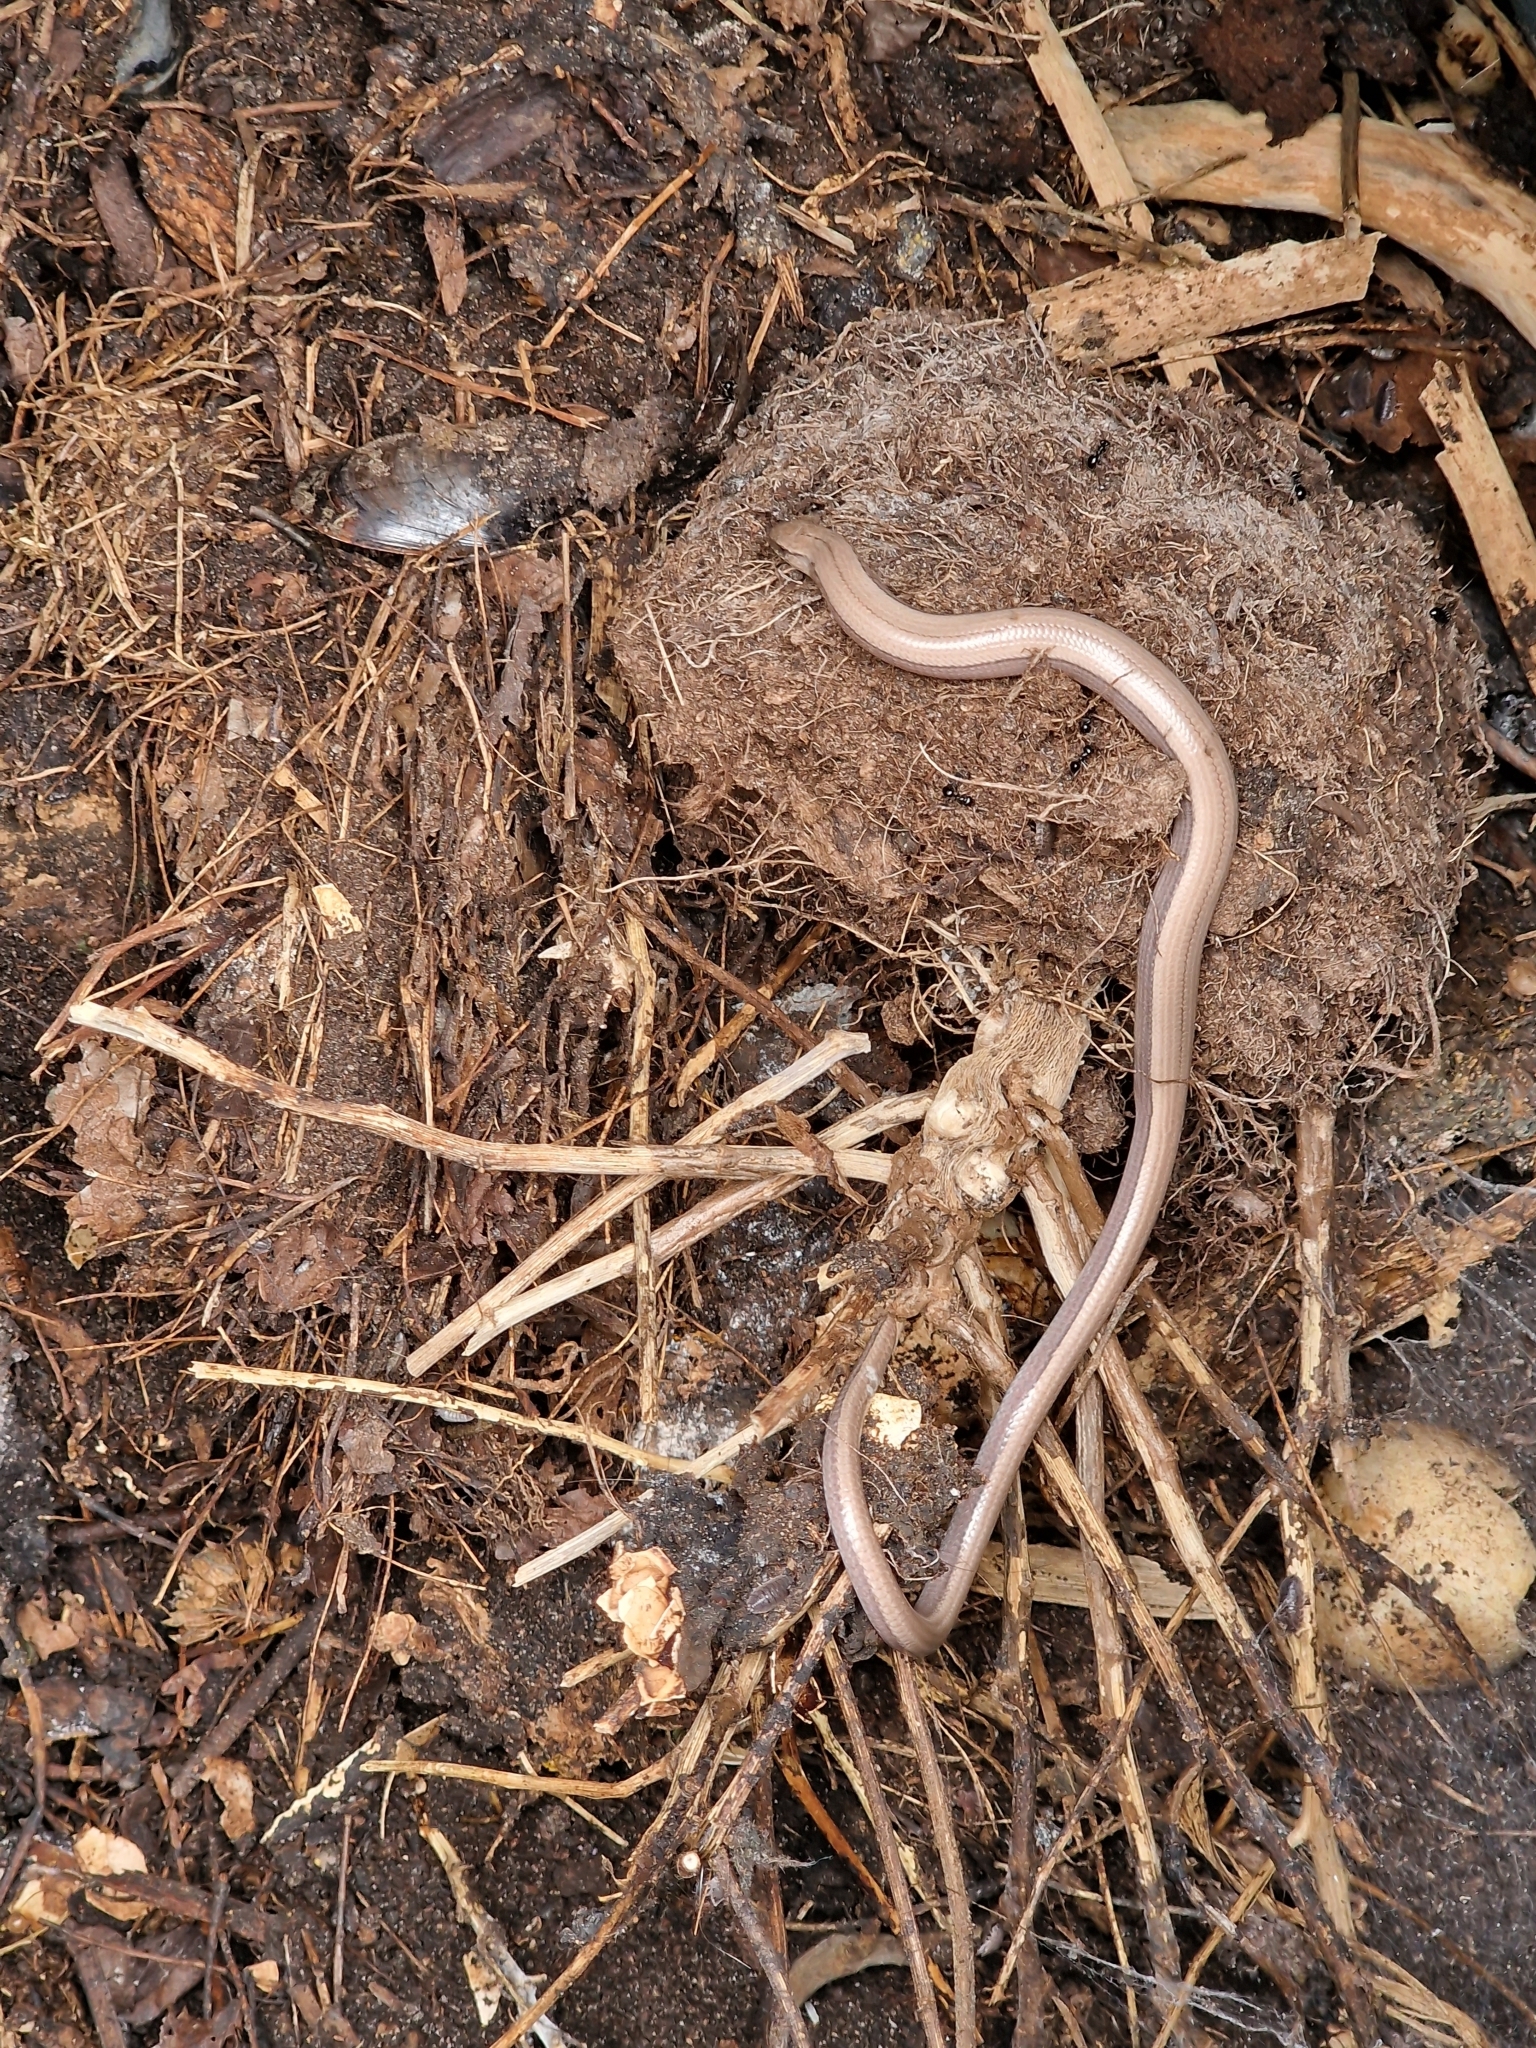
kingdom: Animalia
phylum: Chordata
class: Squamata
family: Anguidae
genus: Anguis
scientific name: Anguis fragilis
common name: Slow worm
